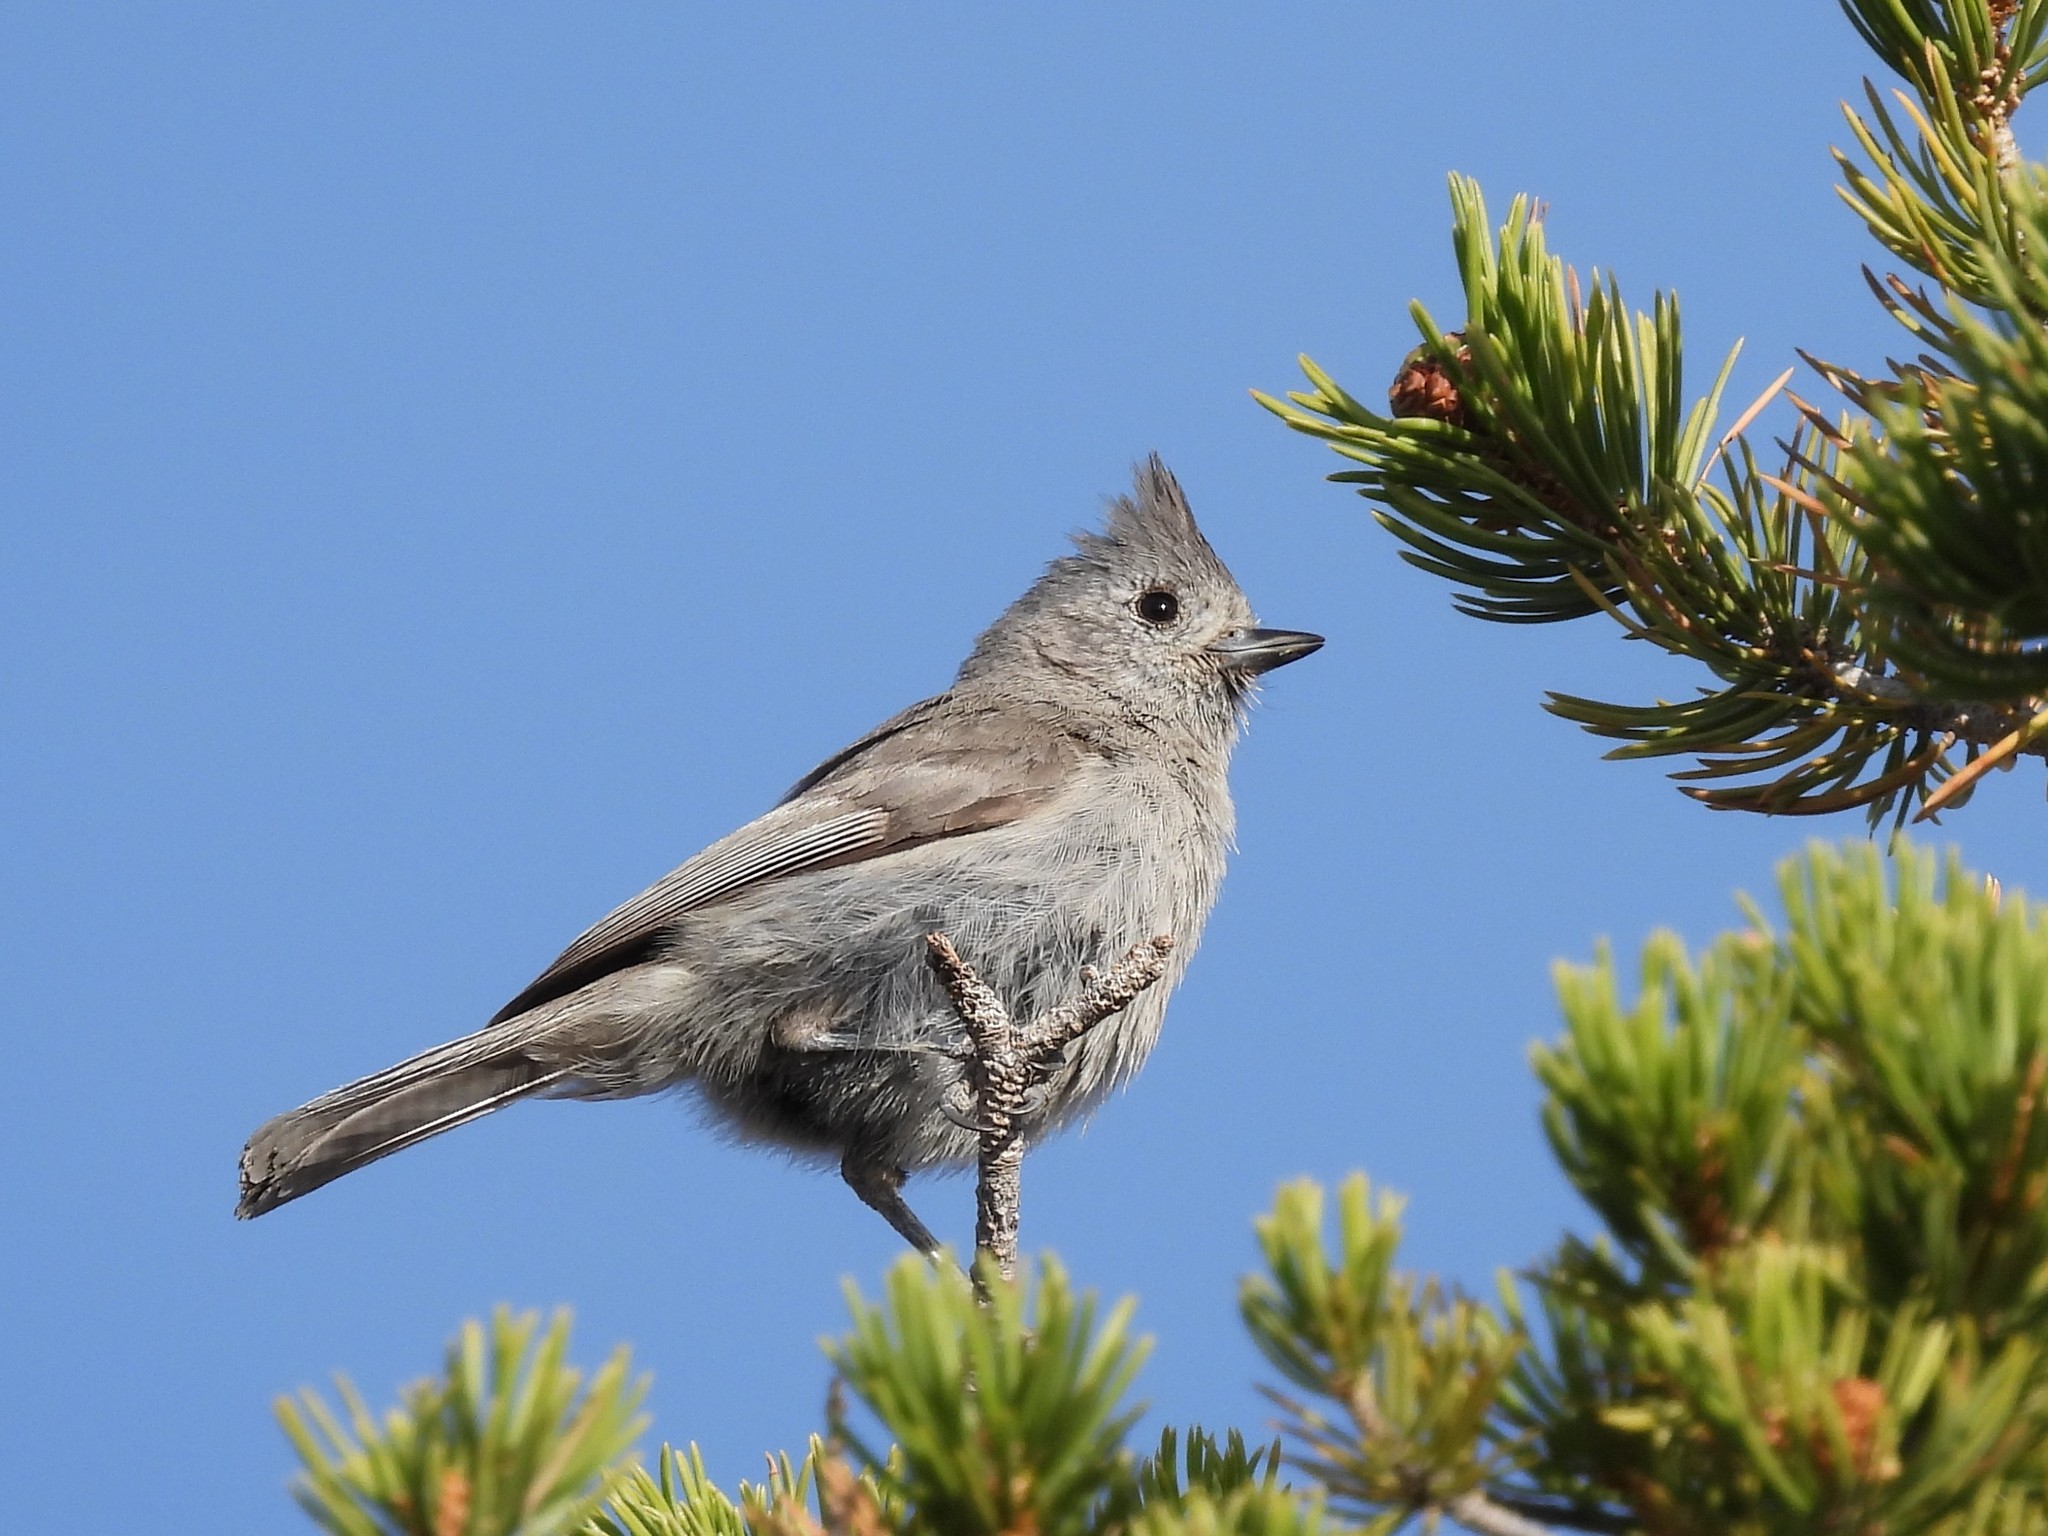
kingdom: Animalia
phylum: Chordata
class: Aves
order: Passeriformes
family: Paridae
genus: Baeolophus
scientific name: Baeolophus ridgwayi
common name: Juniper titmouse
